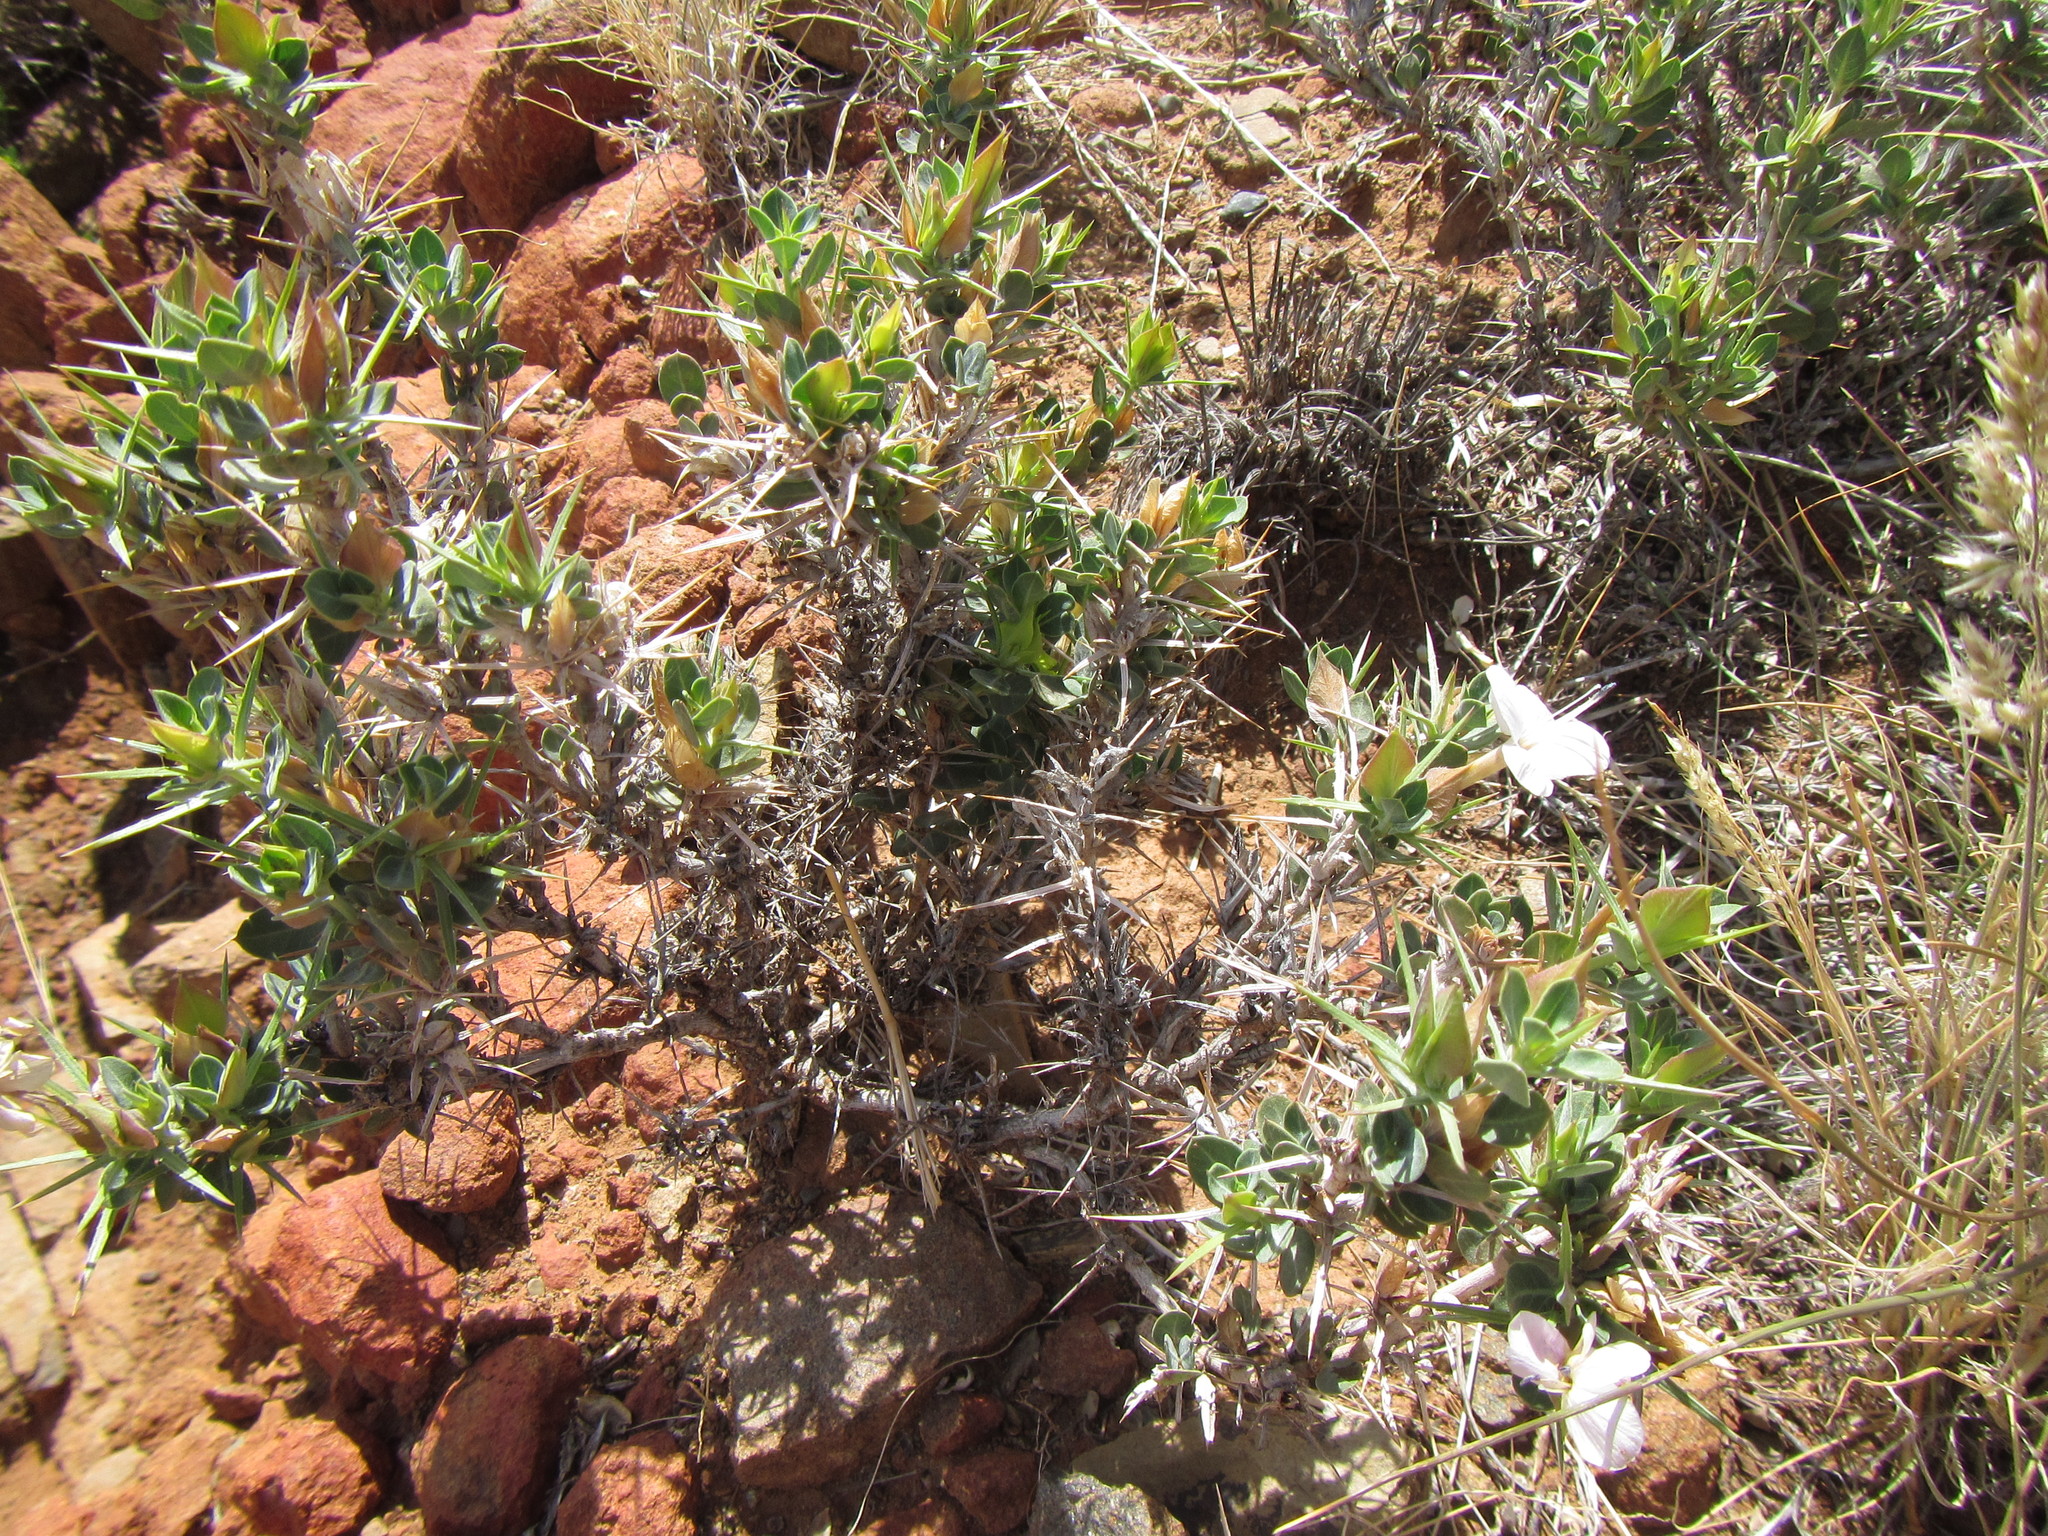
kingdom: Plantae
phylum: Tracheophyta
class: Magnoliopsida
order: Lamiales
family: Acanthaceae
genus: Barleria
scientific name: Barleria stimulans
